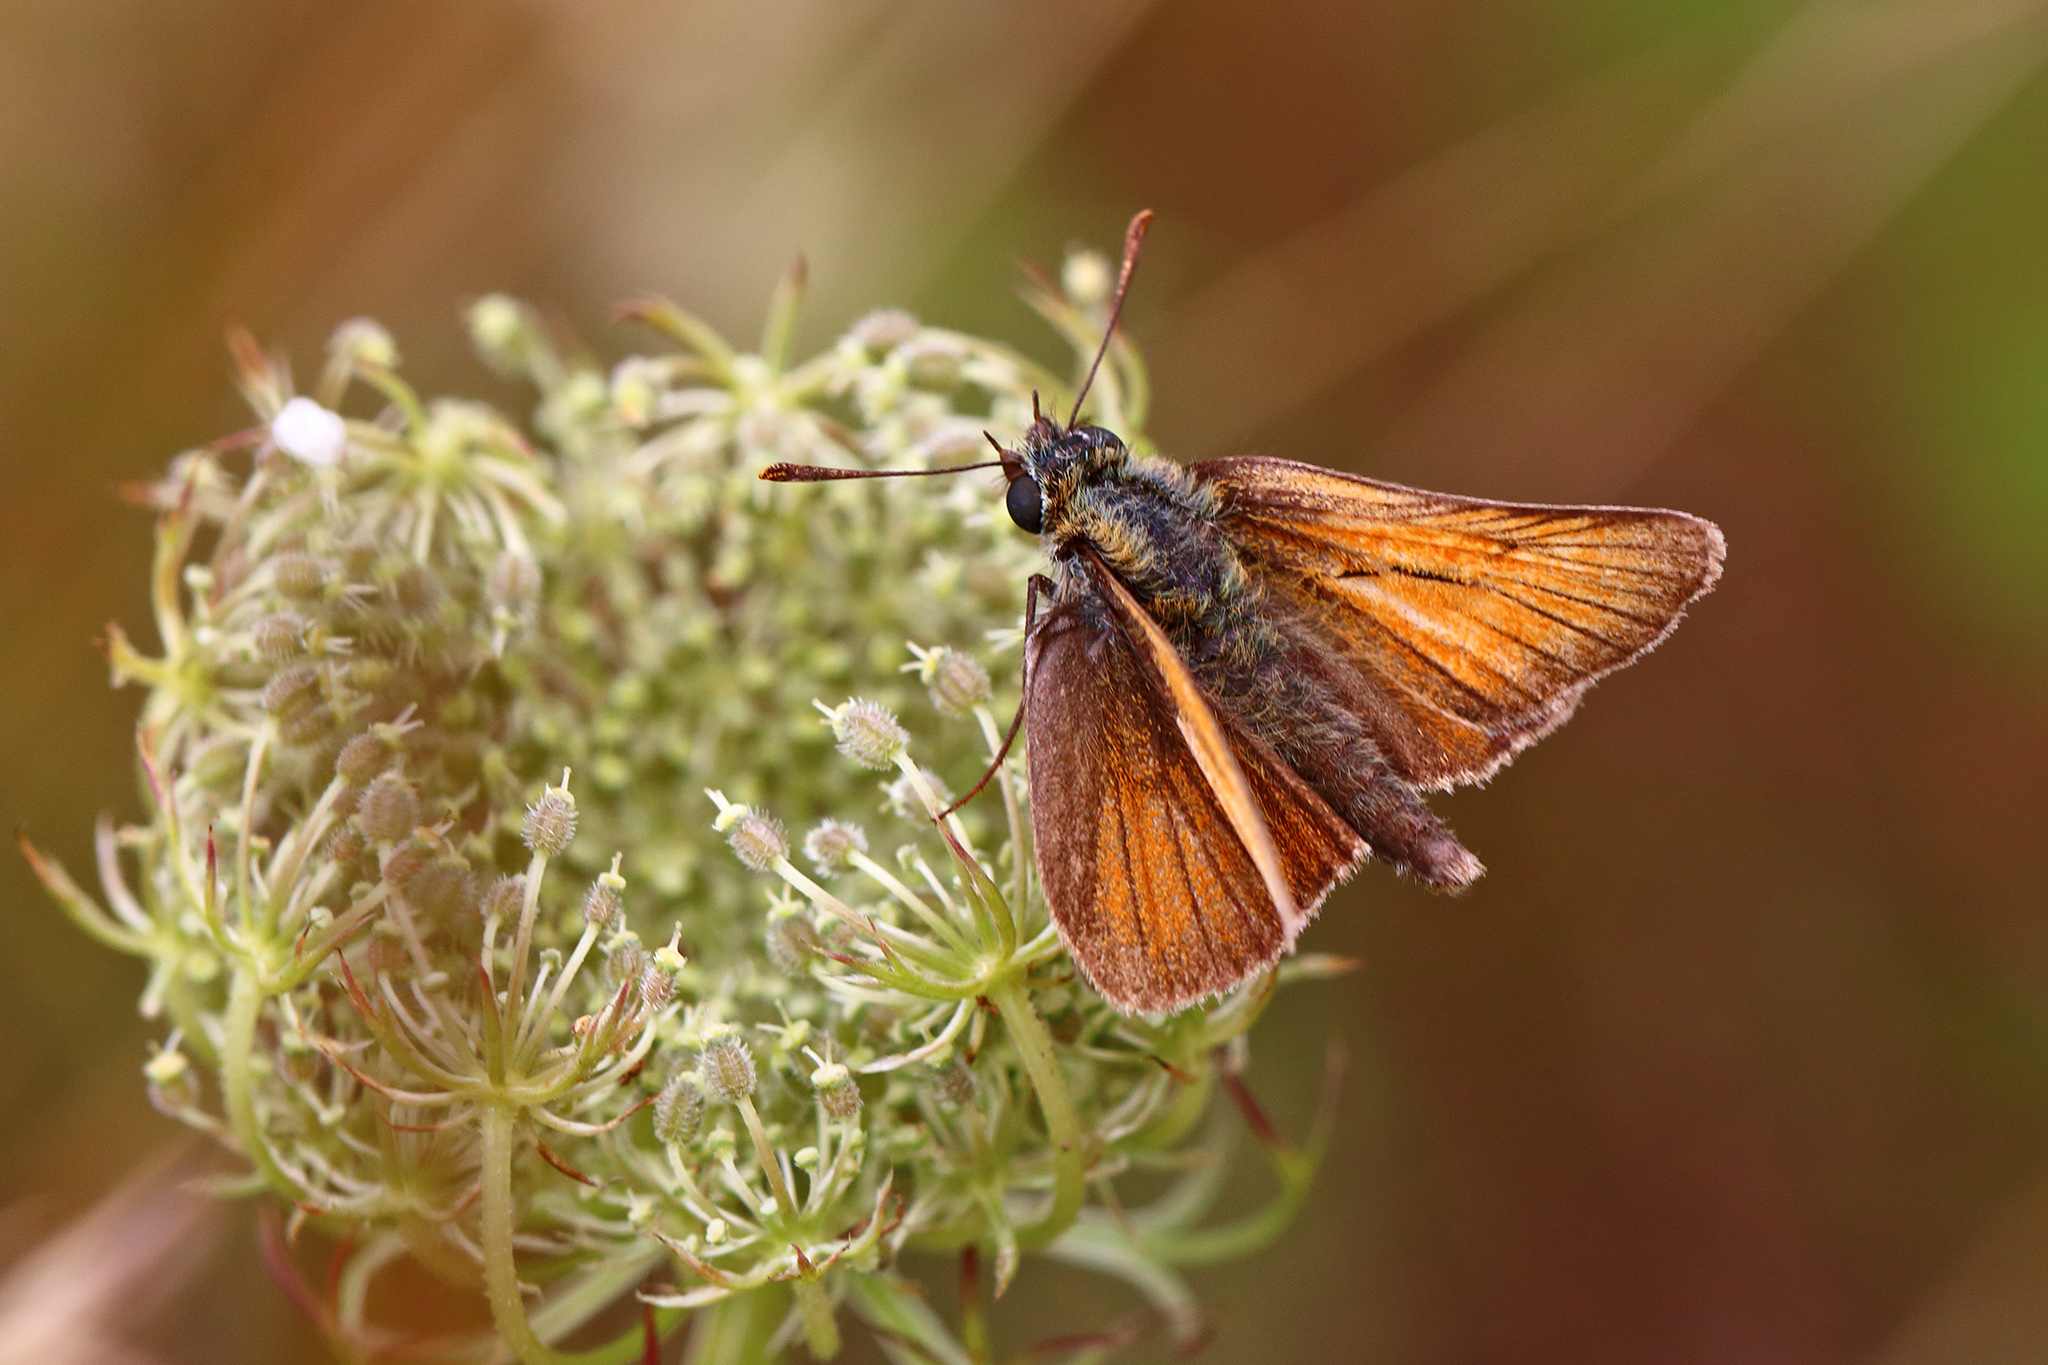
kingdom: Animalia
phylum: Arthropoda
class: Insecta
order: Lepidoptera
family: Hesperiidae
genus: Thymelicus
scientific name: Thymelicus sylvestris
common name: Small skipper
